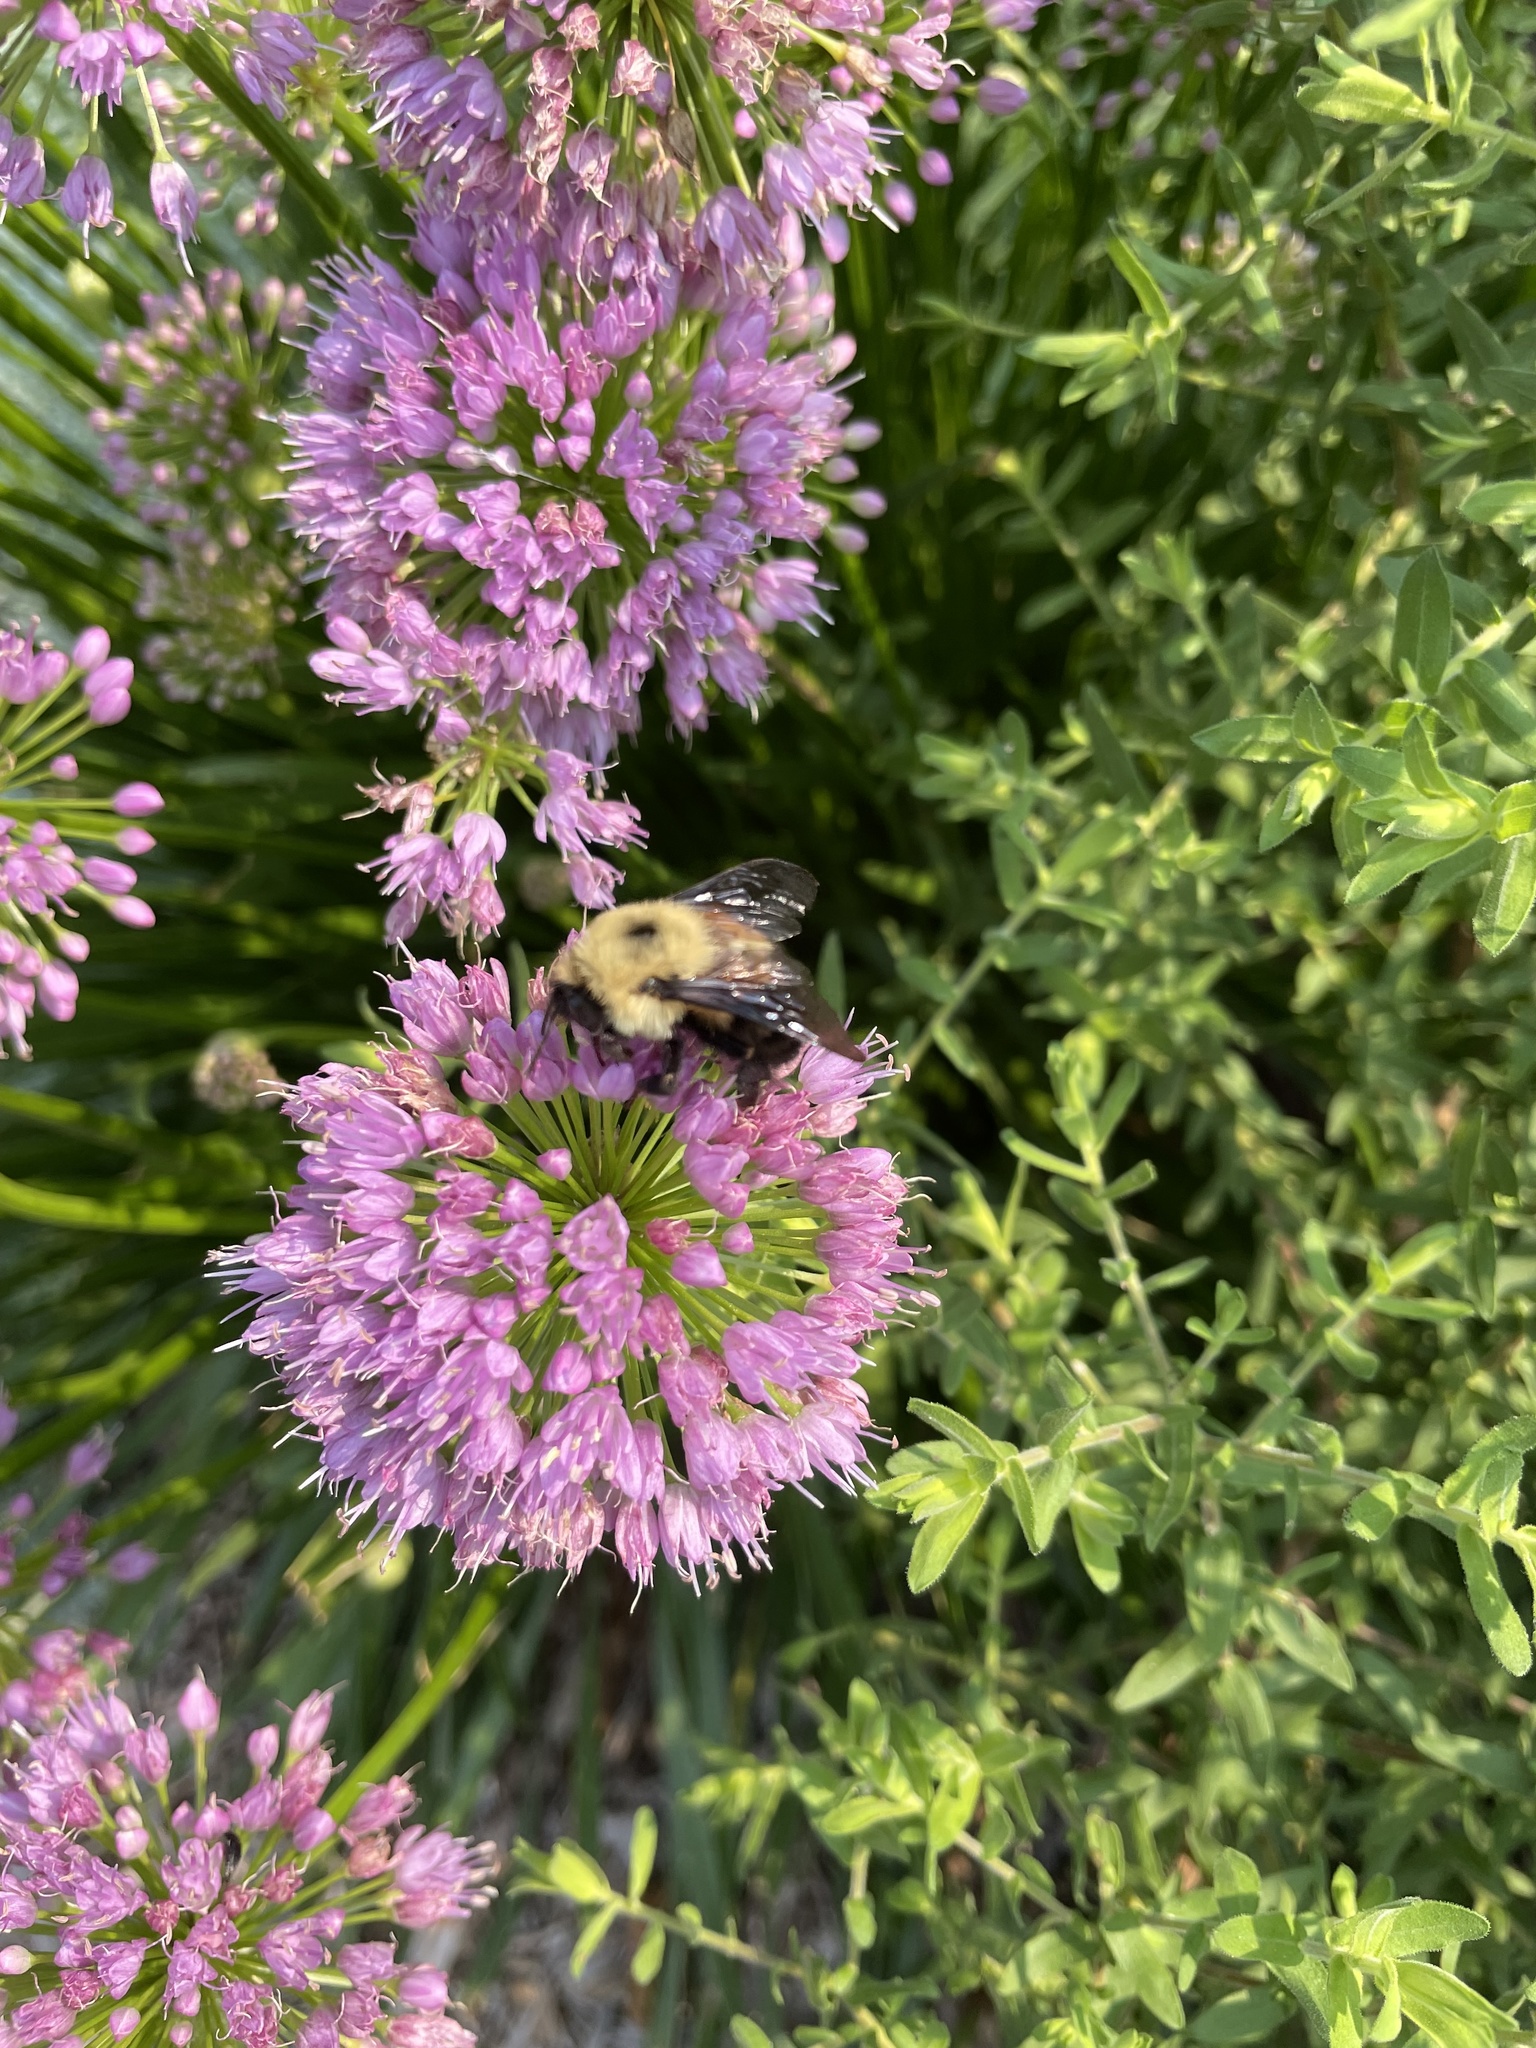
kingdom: Animalia
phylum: Arthropoda
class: Insecta
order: Hymenoptera
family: Apidae
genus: Bombus
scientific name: Bombus bimaculatus
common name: Two-spotted bumble bee
